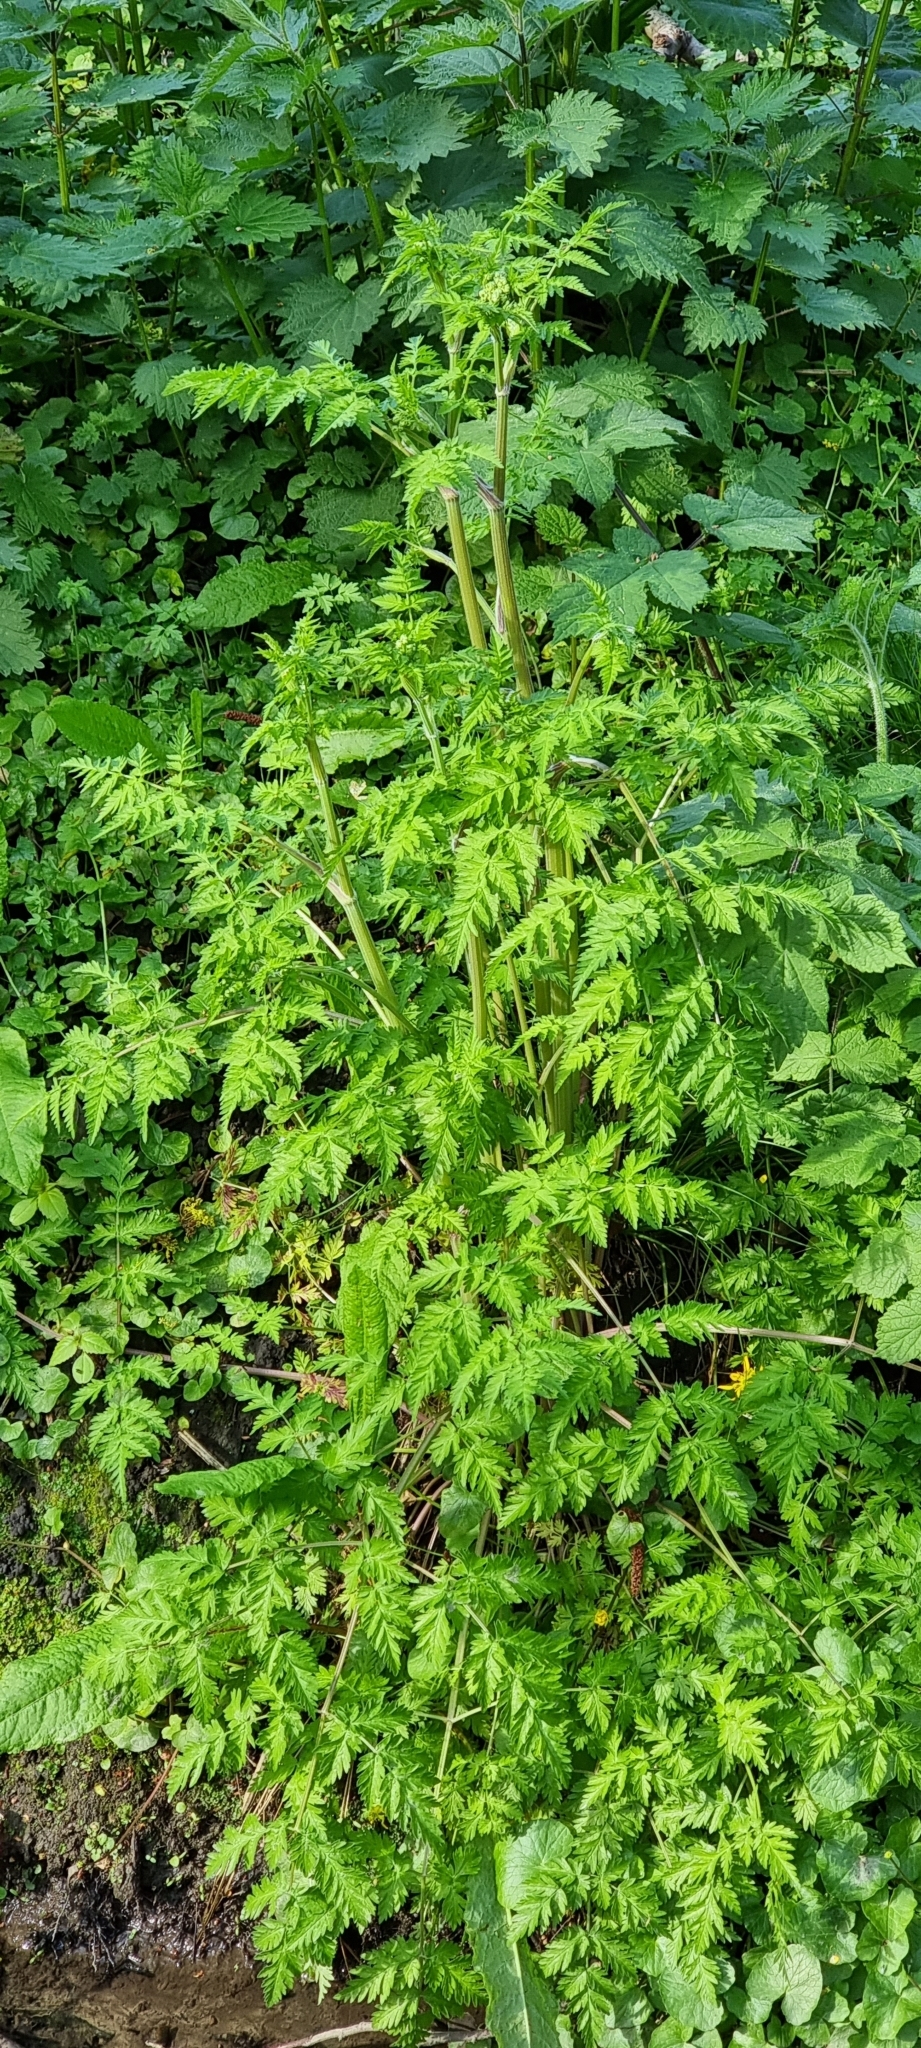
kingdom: Plantae
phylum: Tracheophyta
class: Magnoliopsida
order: Apiales
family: Apiaceae
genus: Anthriscus
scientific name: Anthriscus sylvestris
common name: Cow parsley
